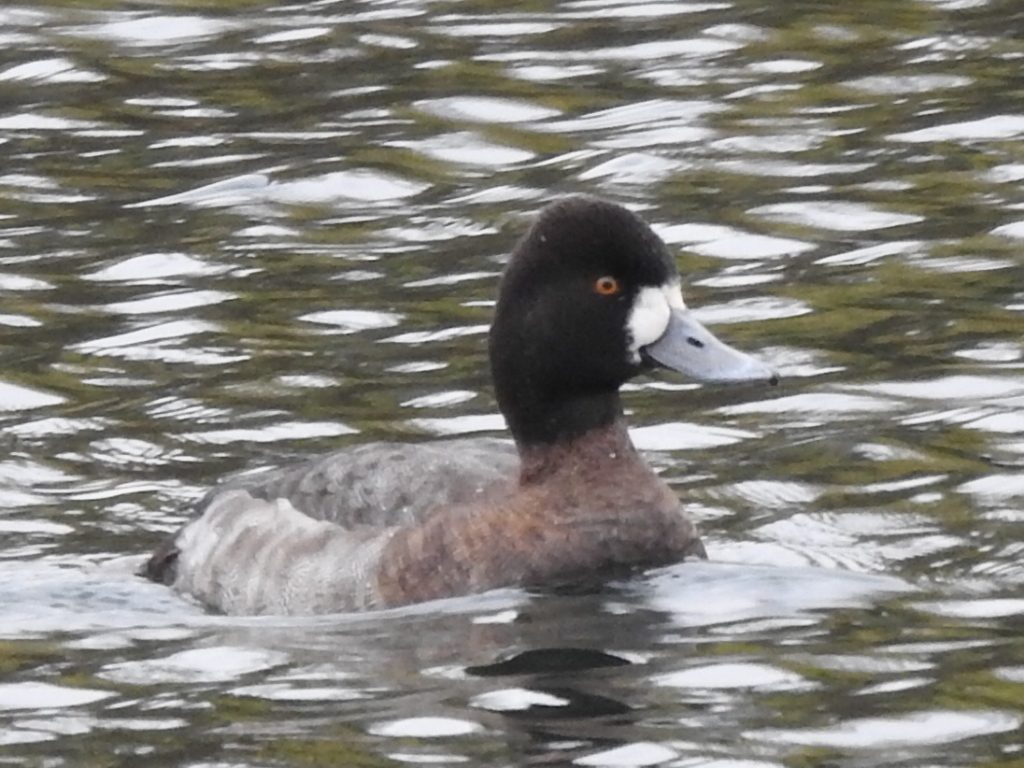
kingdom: Animalia
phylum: Chordata
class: Aves
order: Anseriformes
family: Anatidae
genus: Aythya
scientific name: Aythya affinis
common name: Lesser scaup
